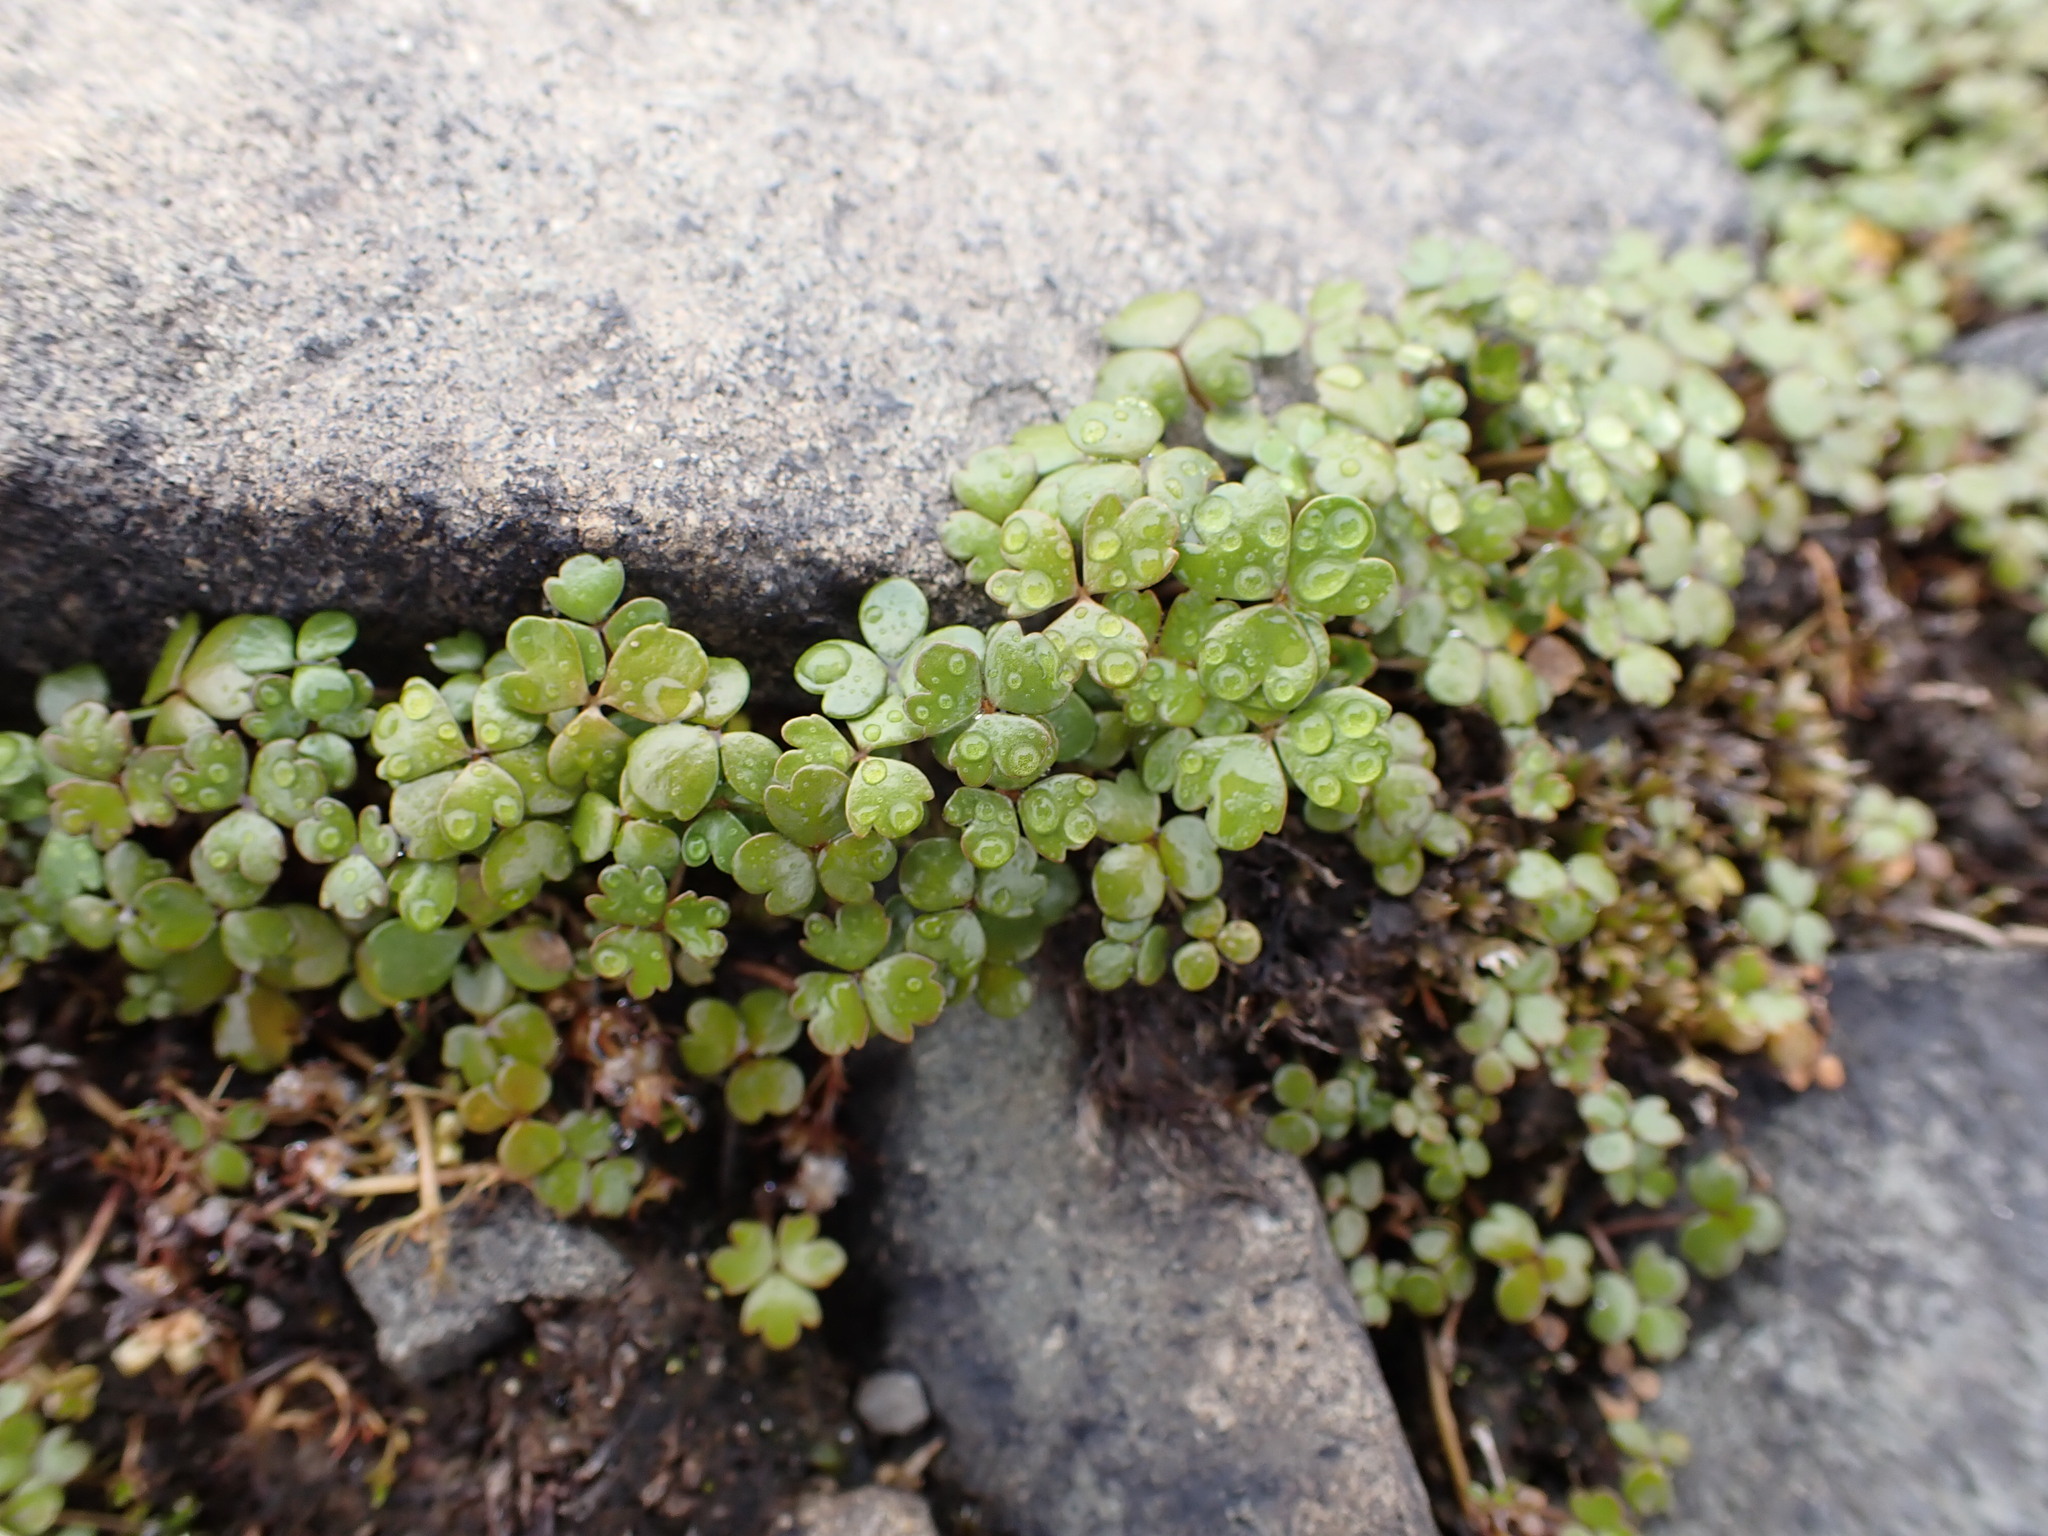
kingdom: Plantae
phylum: Tracheophyta
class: Magnoliopsida
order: Apiales
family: Araliaceae
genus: Hydrocotyle
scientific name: Hydrocotyle sulcata
